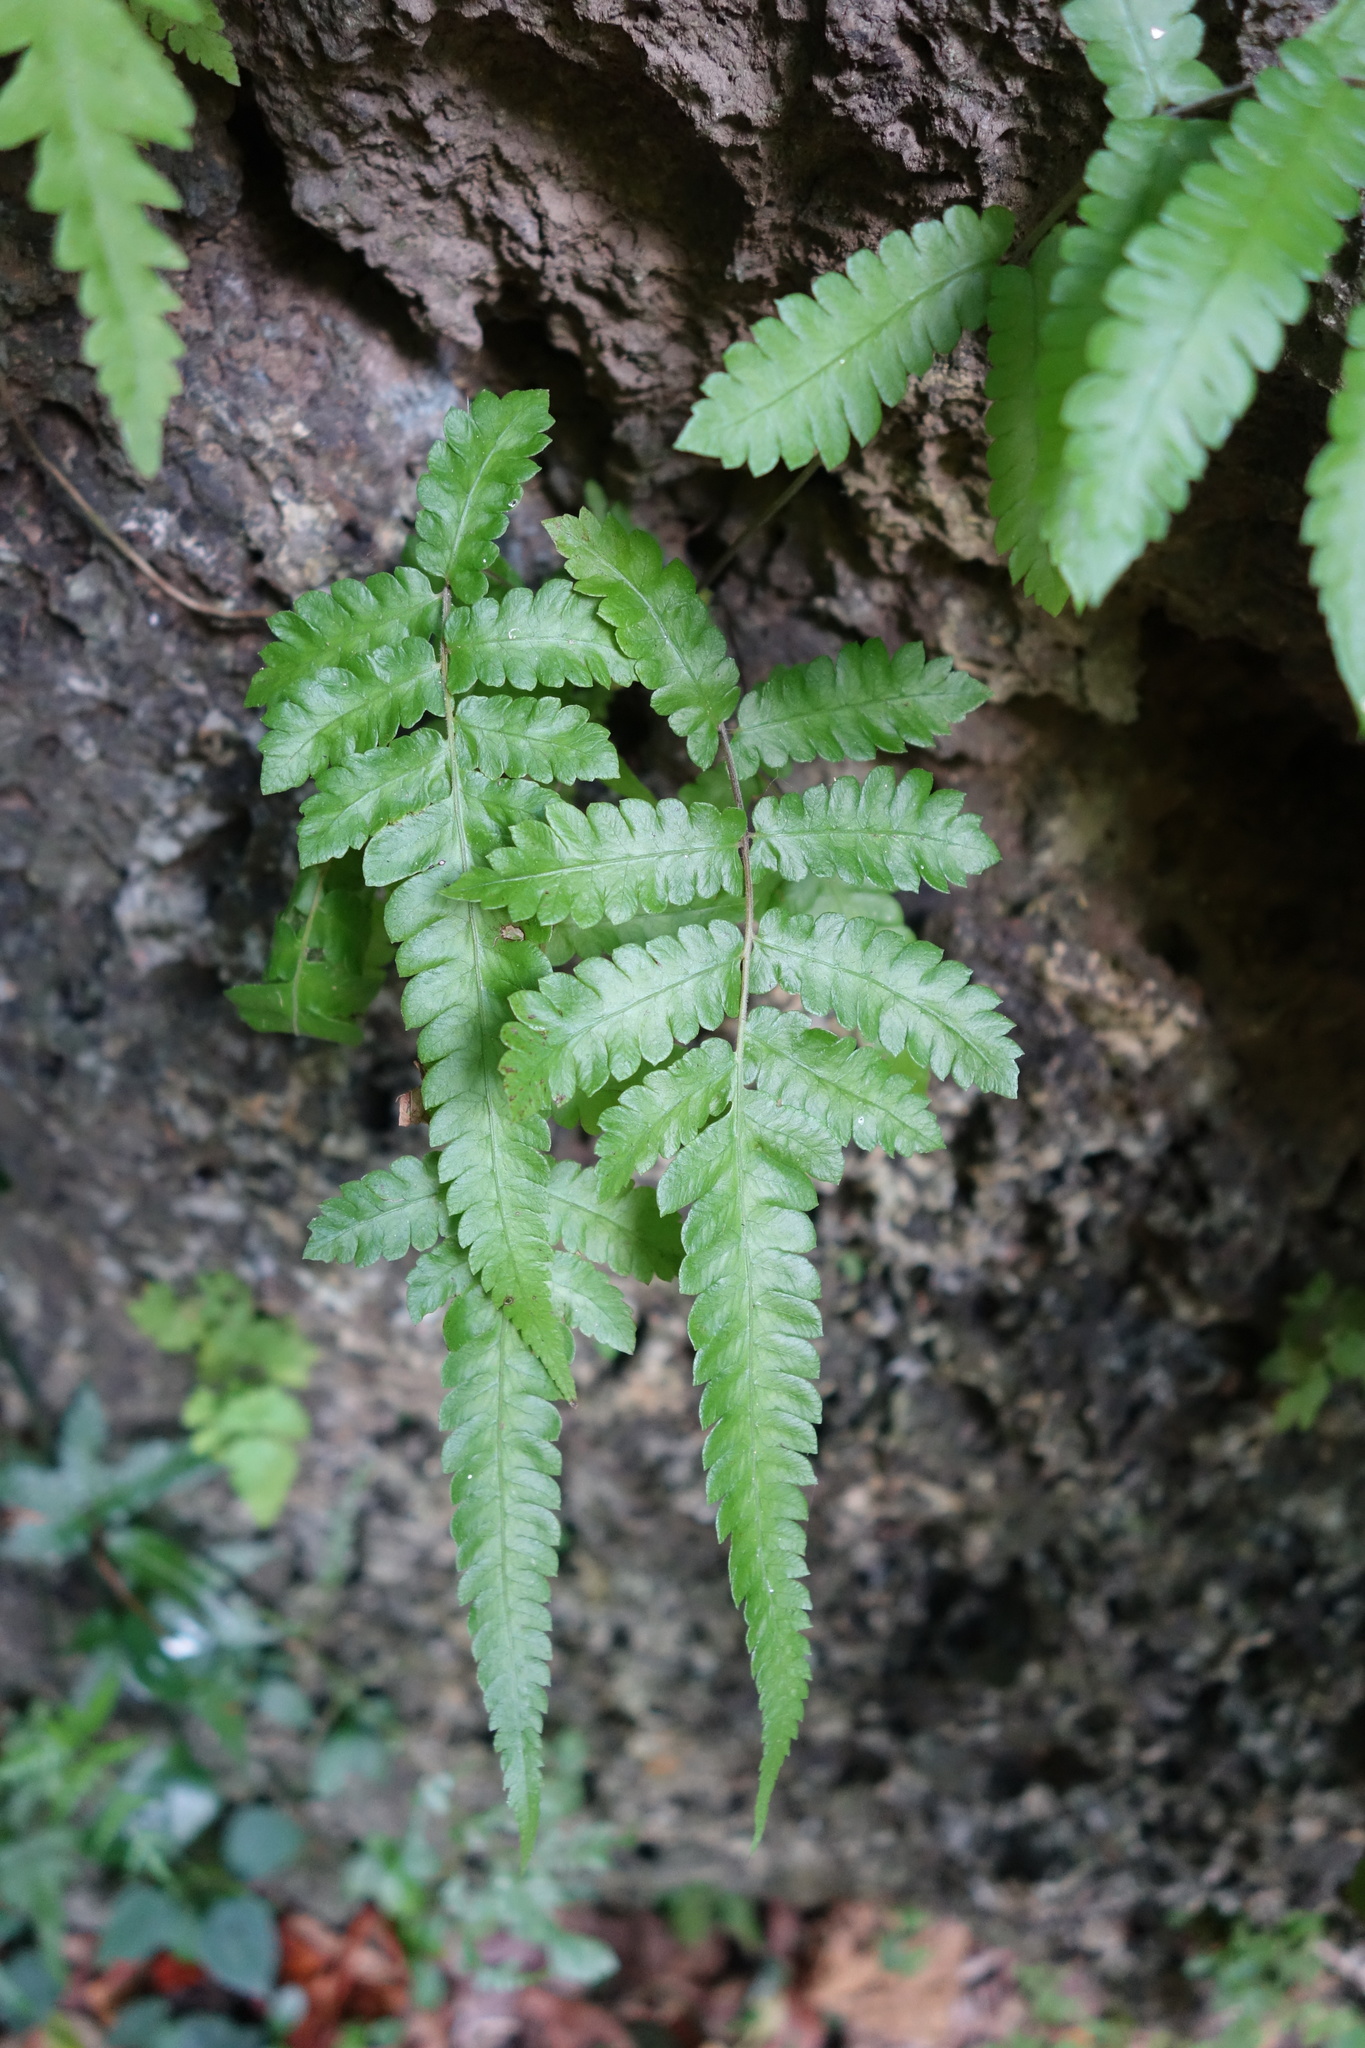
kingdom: Plantae
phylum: Tracheophyta
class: Polypodiopsida
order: Polypodiales
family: Thelypteridaceae
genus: Christella
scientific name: Christella acuminata
